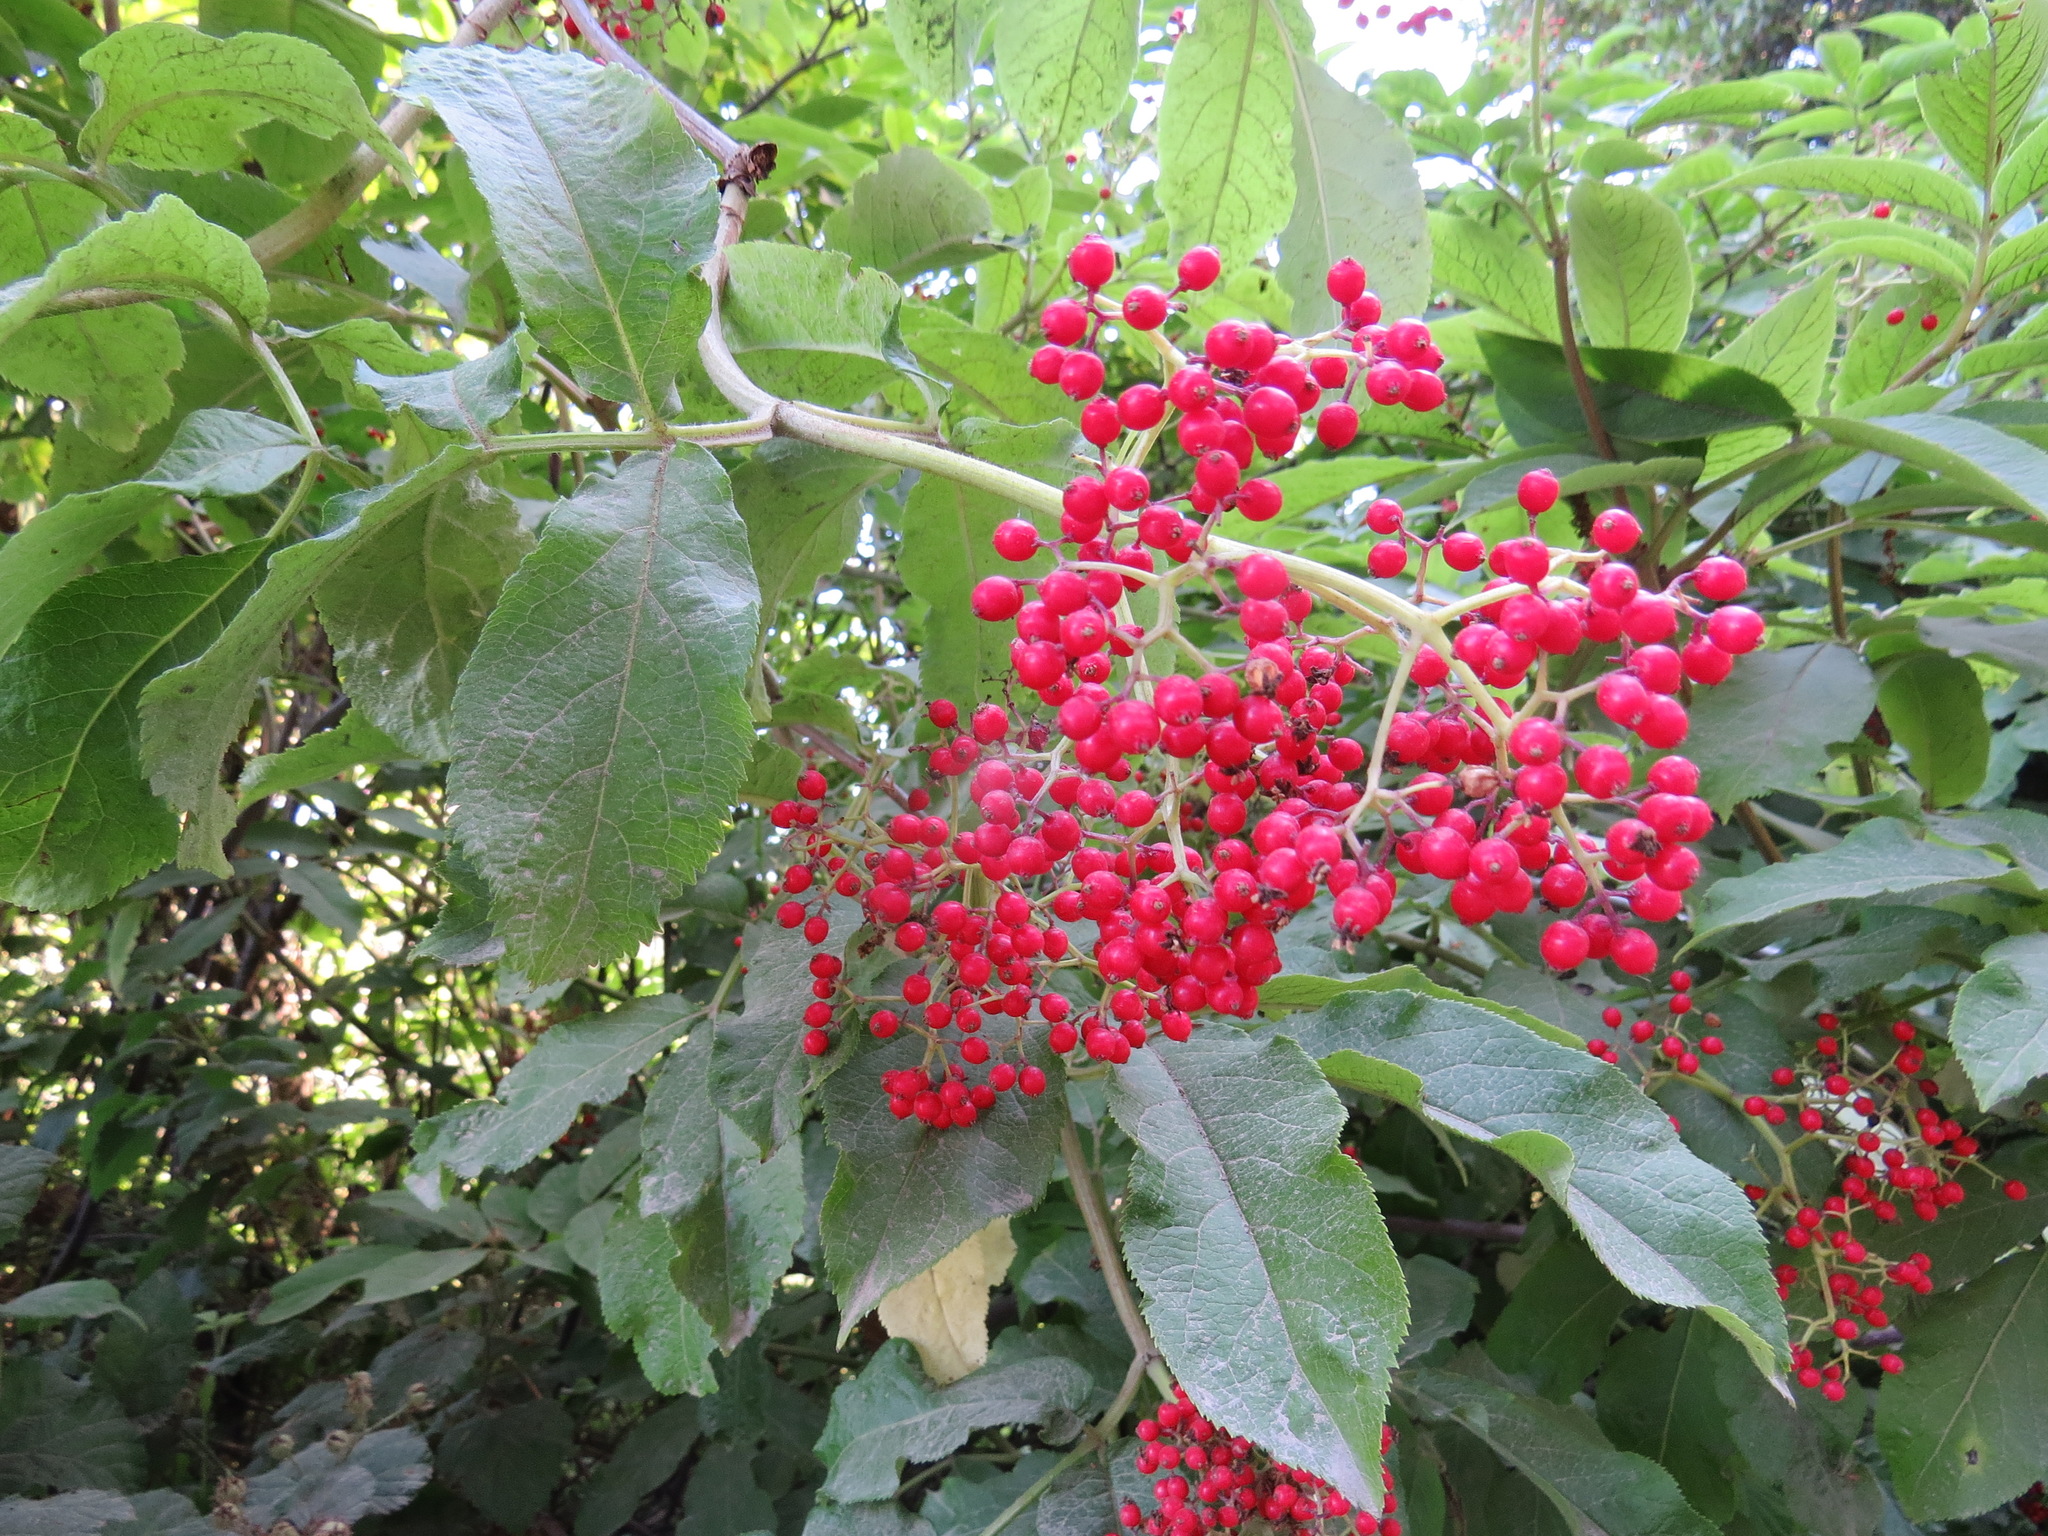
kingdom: Plantae
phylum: Tracheophyta
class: Magnoliopsida
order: Dipsacales
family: Viburnaceae
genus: Sambucus
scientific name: Sambucus racemosa
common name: Red-berried elder
